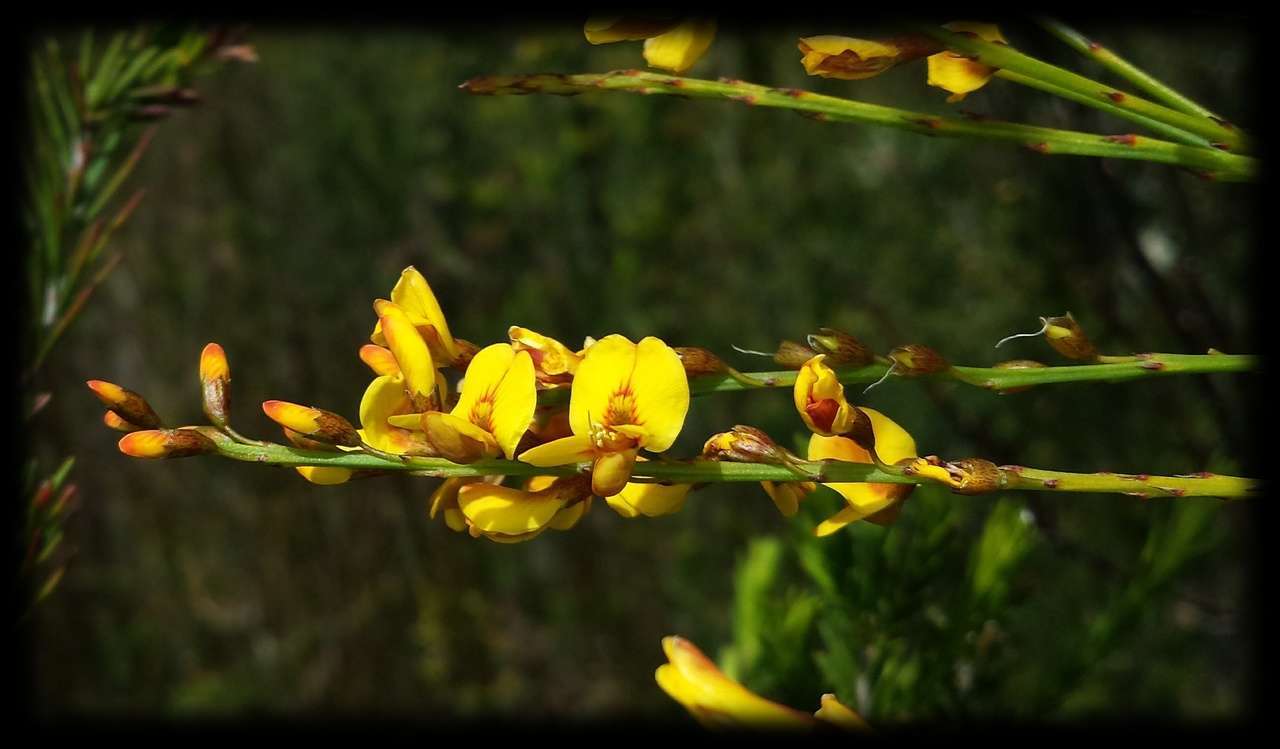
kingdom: Plantae
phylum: Tracheophyta
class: Magnoliopsida
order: Fabales
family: Fabaceae
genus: Viminaria
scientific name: Viminaria juncea
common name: Golden spray
